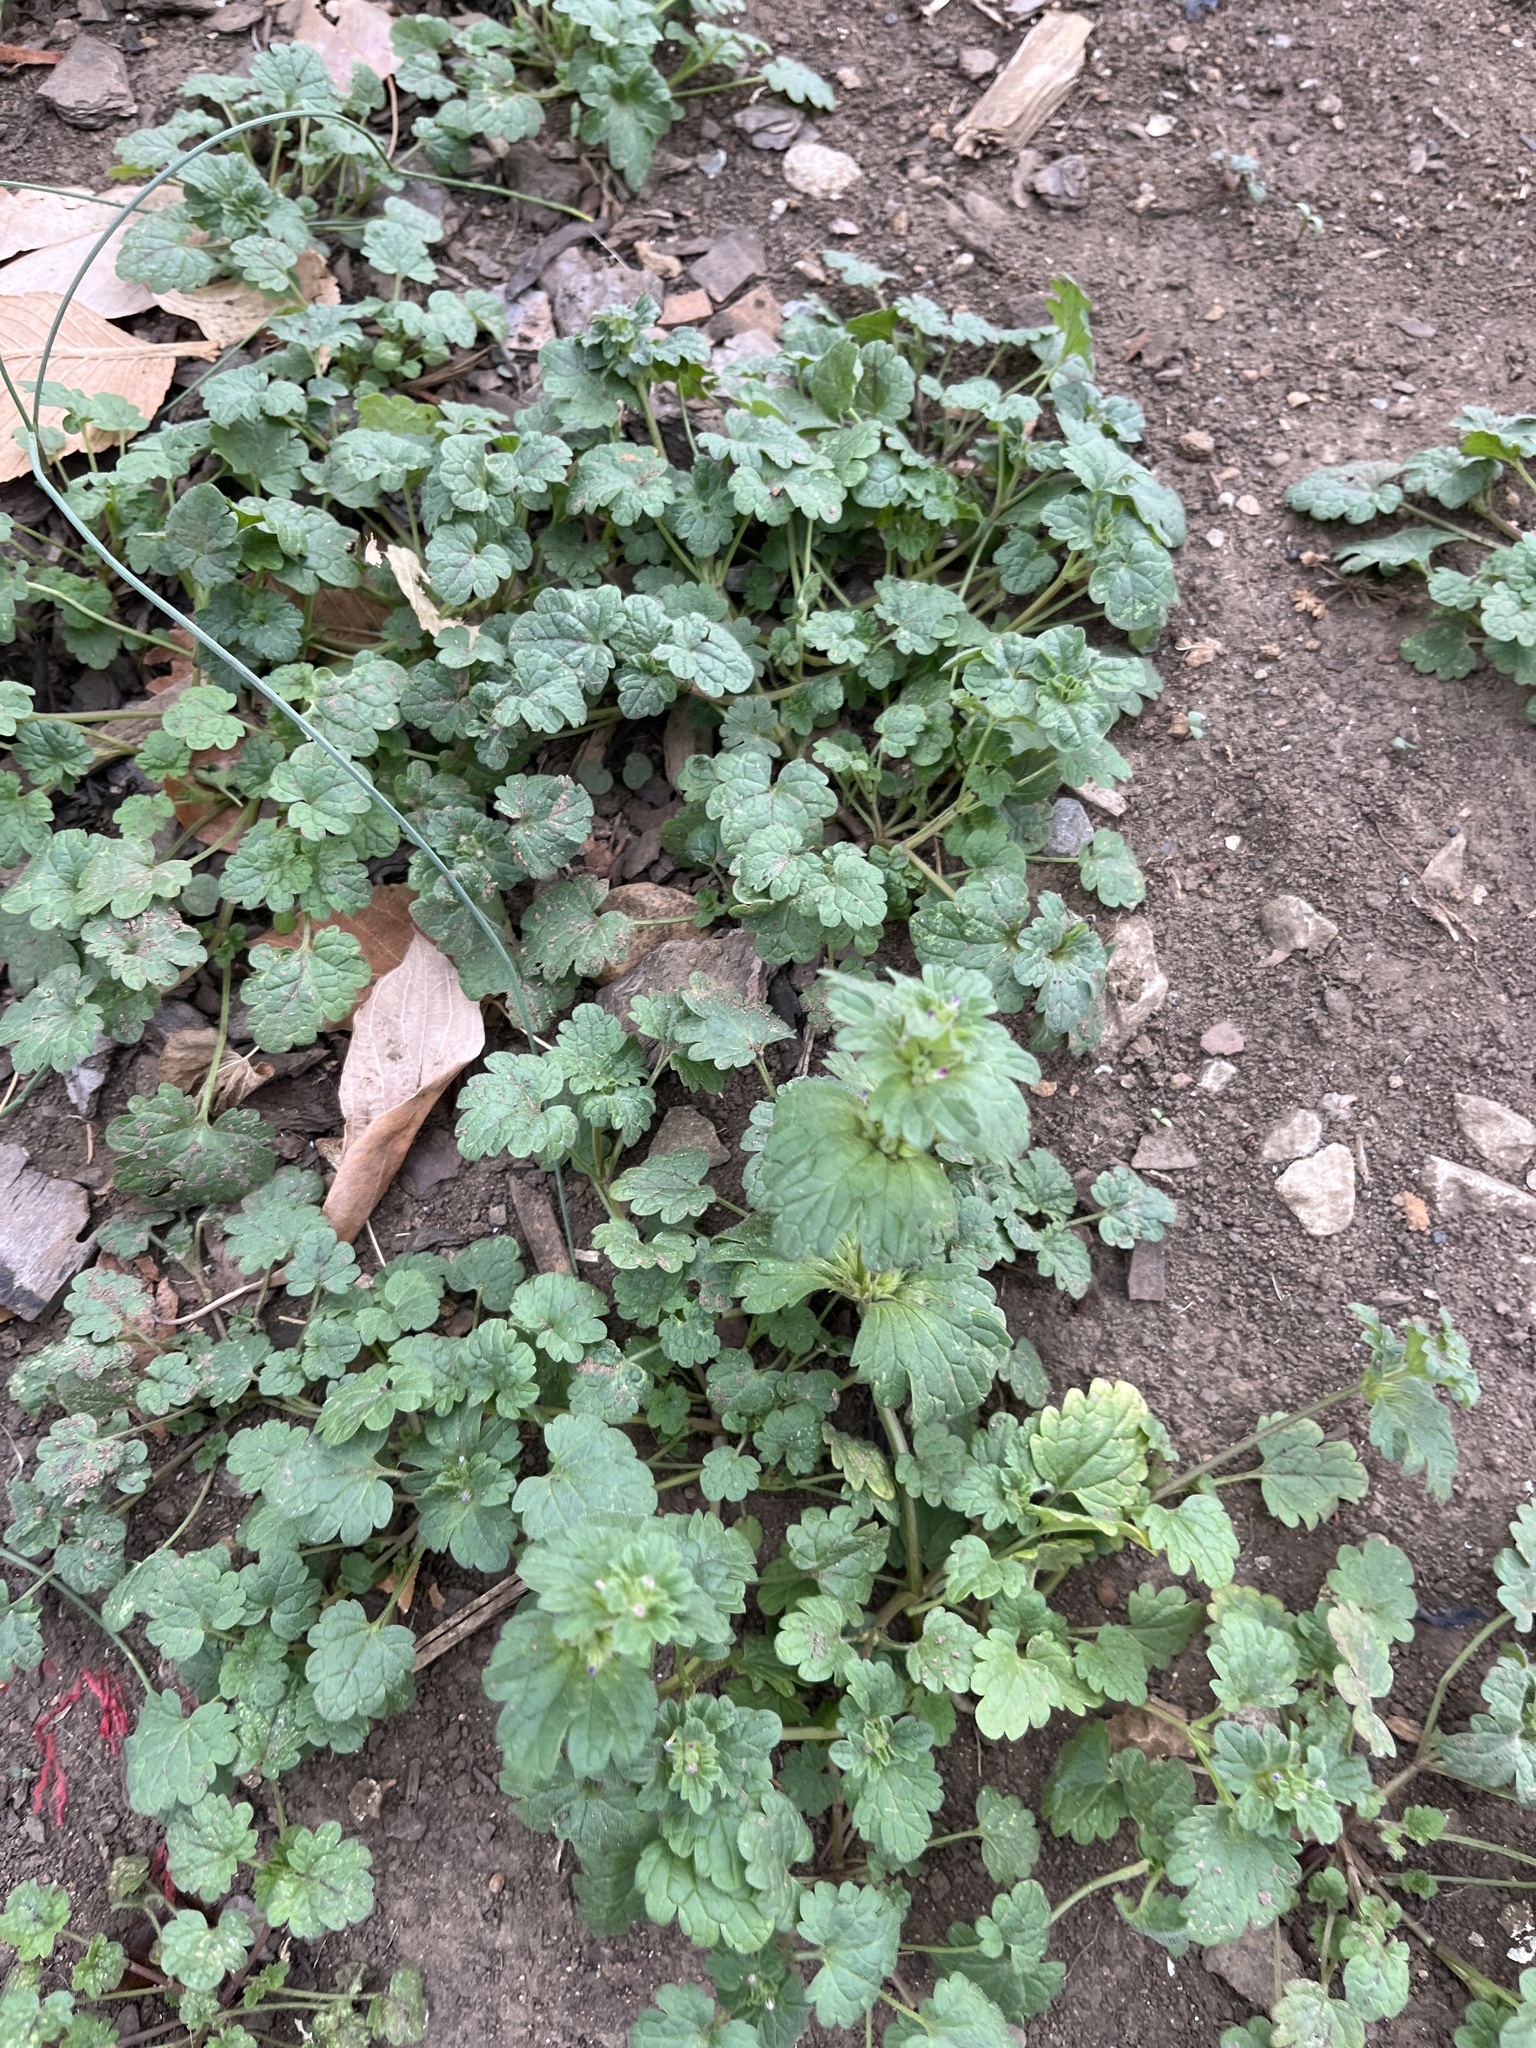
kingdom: Plantae
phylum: Tracheophyta
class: Magnoliopsida
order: Lamiales
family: Lamiaceae
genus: Lamium
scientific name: Lamium amplexicaule
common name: Henbit dead-nettle
